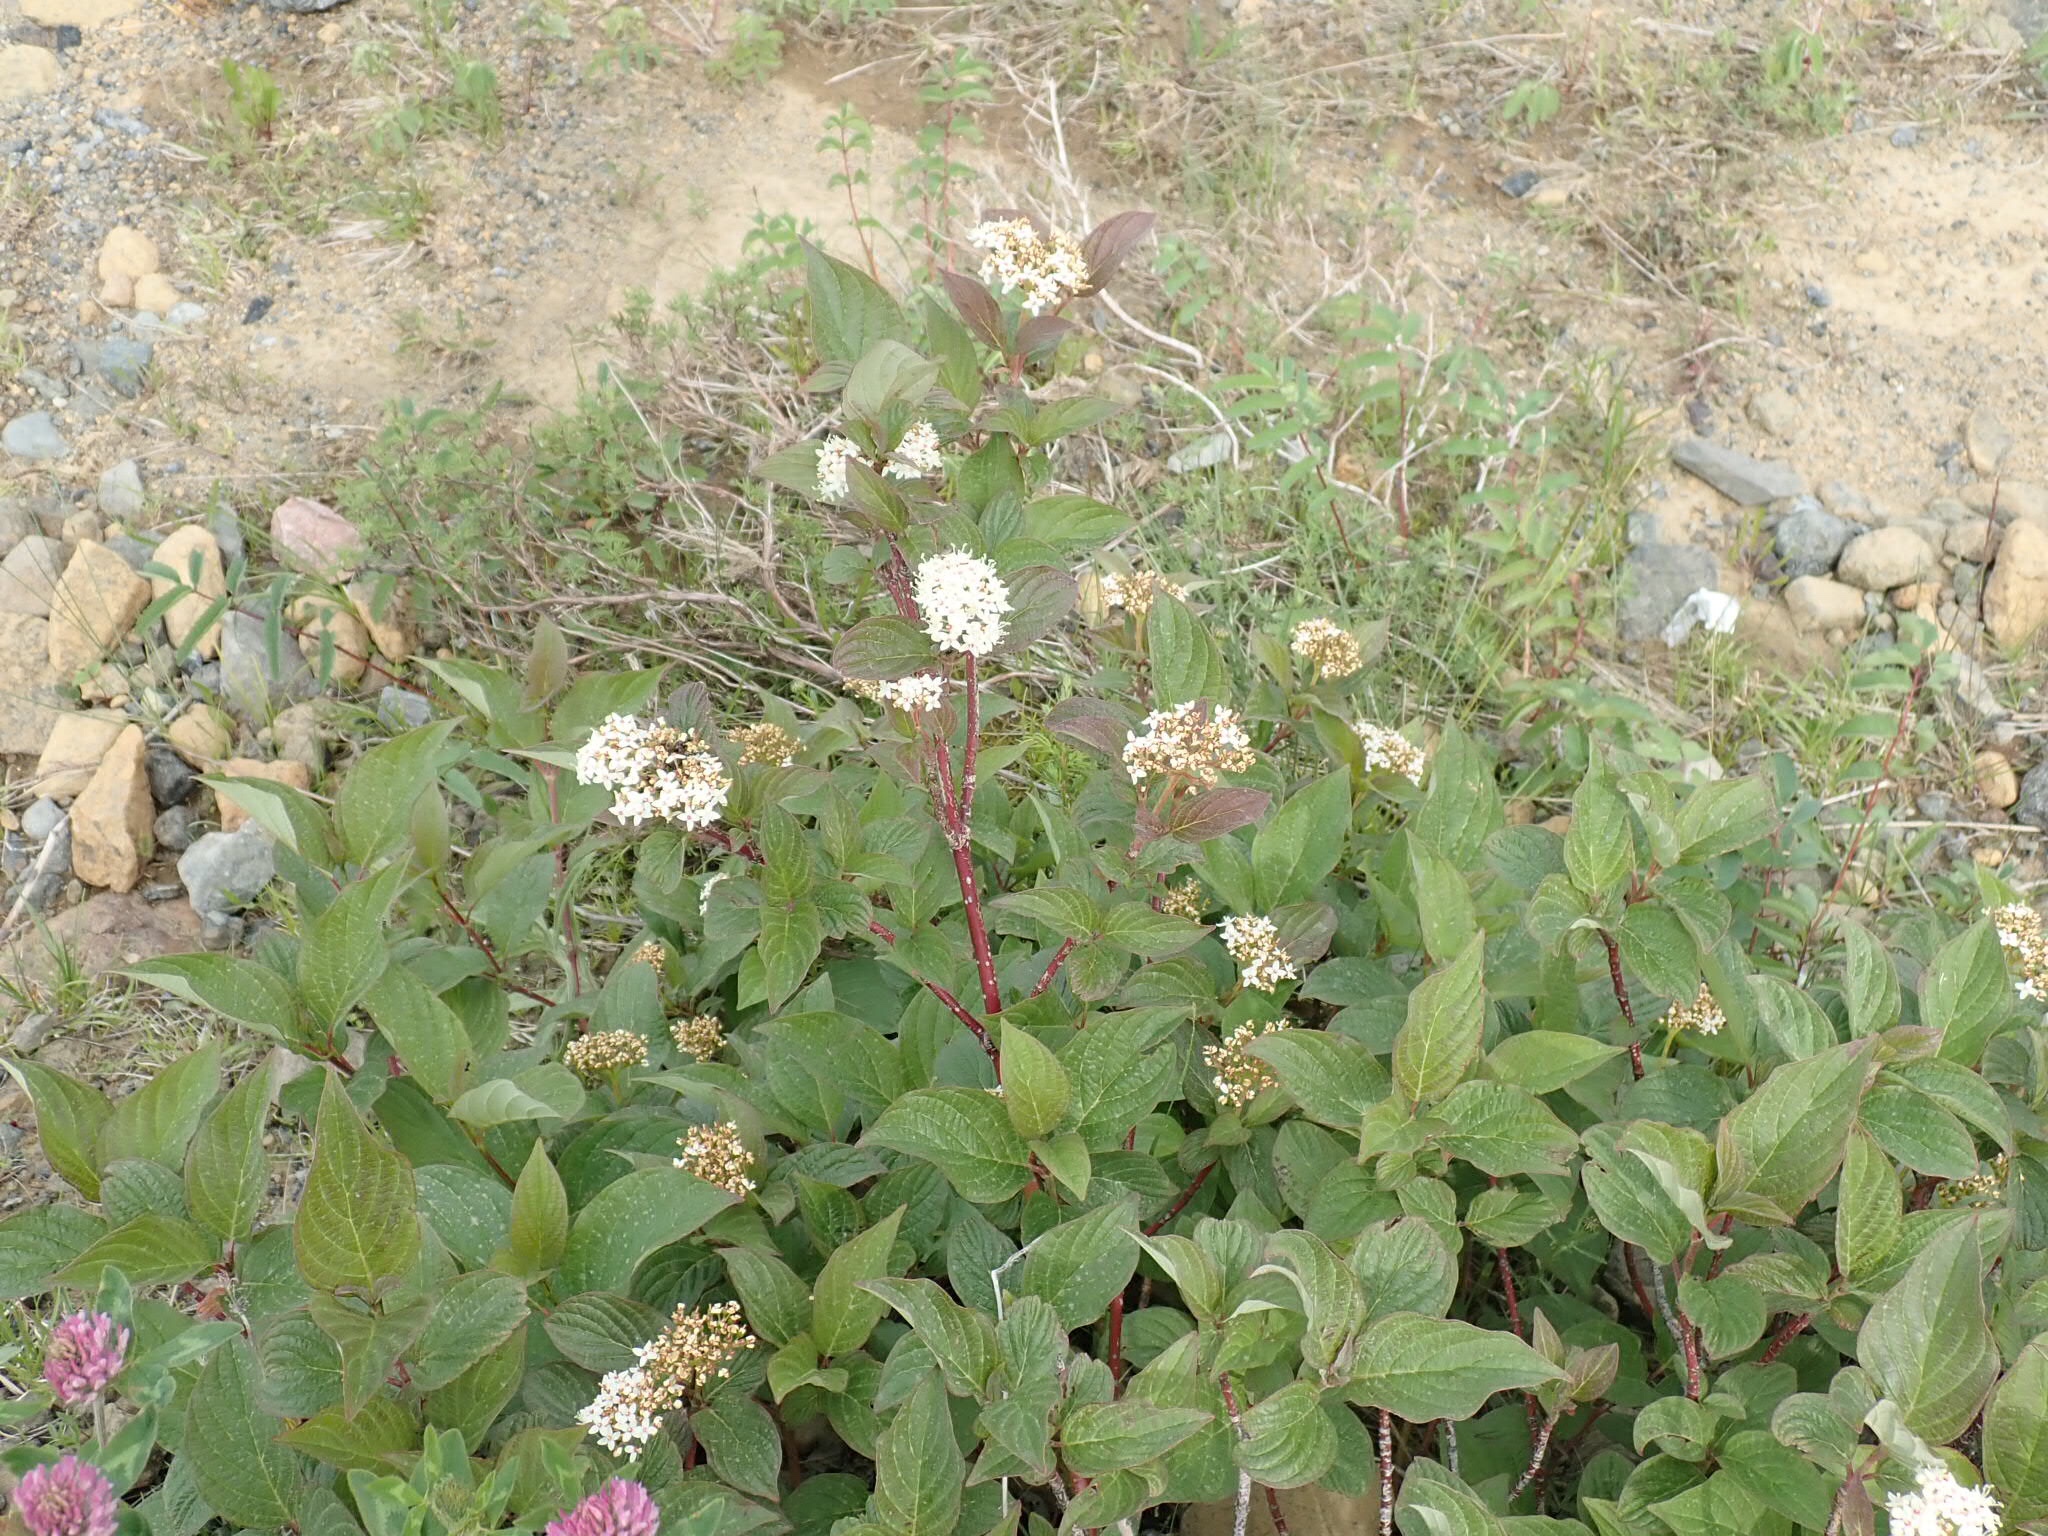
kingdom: Plantae
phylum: Tracheophyta
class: Magnoliopsida
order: Cornales
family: Cornaceae
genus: Cornus
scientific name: Cornus sericea
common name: Red-osier dogwood
